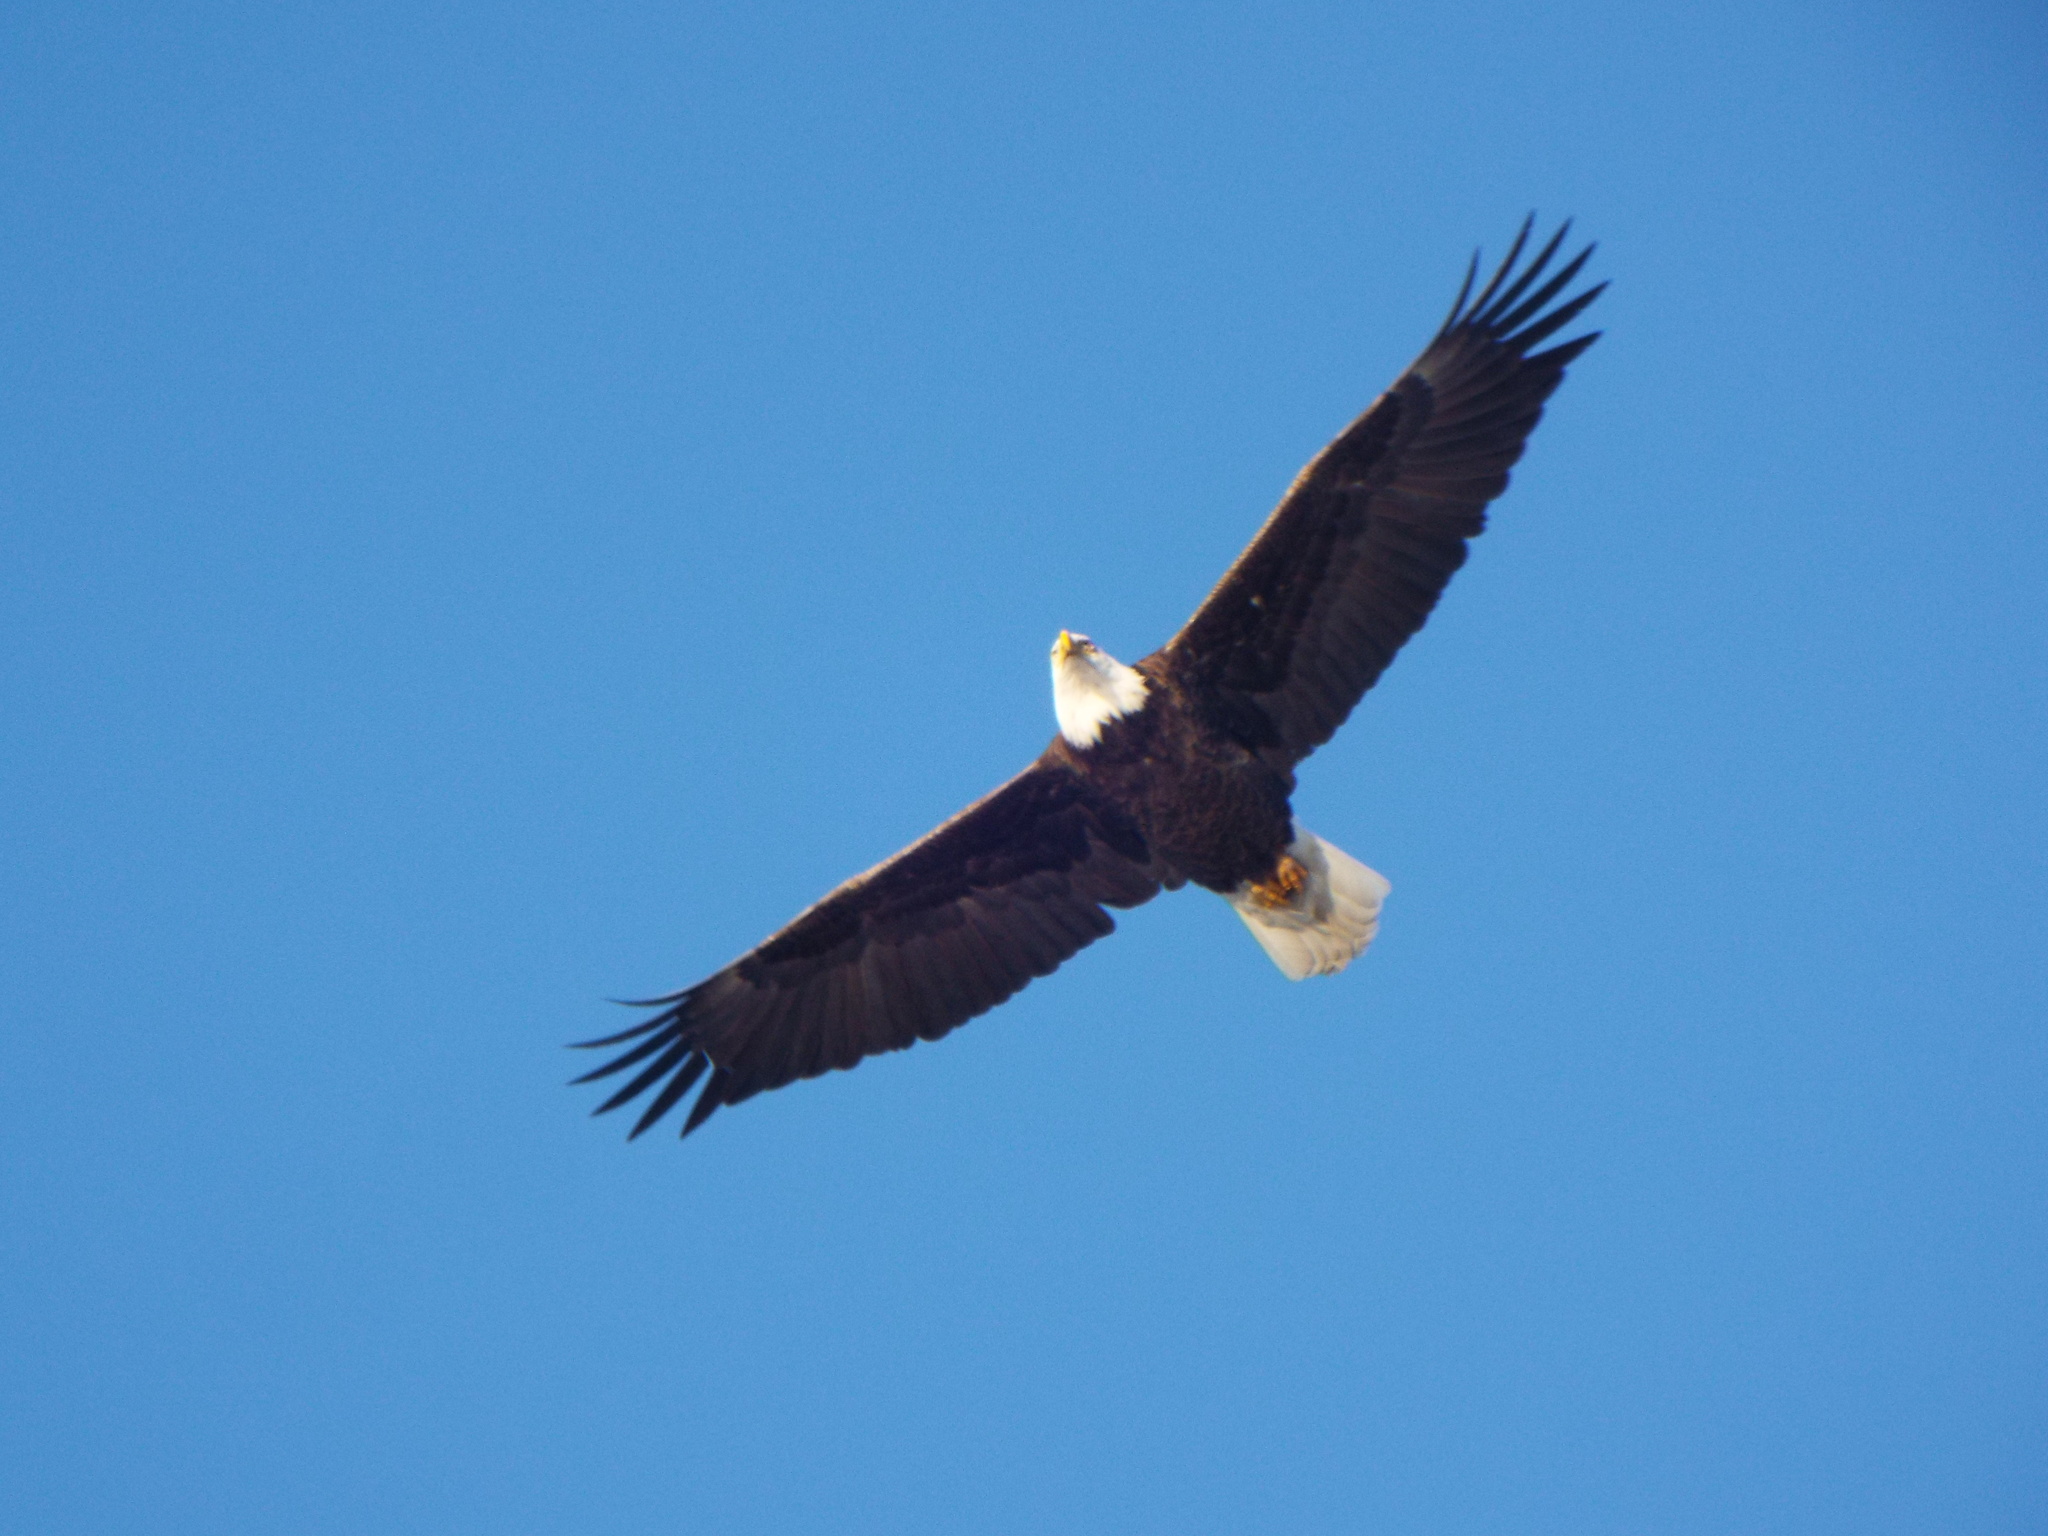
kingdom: Animalia
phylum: Chordata
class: Aves
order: Accipitriformes
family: Accipitridae
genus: Haliaeetus
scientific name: Haliaeetus leucocephalus
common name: Bald eagle
